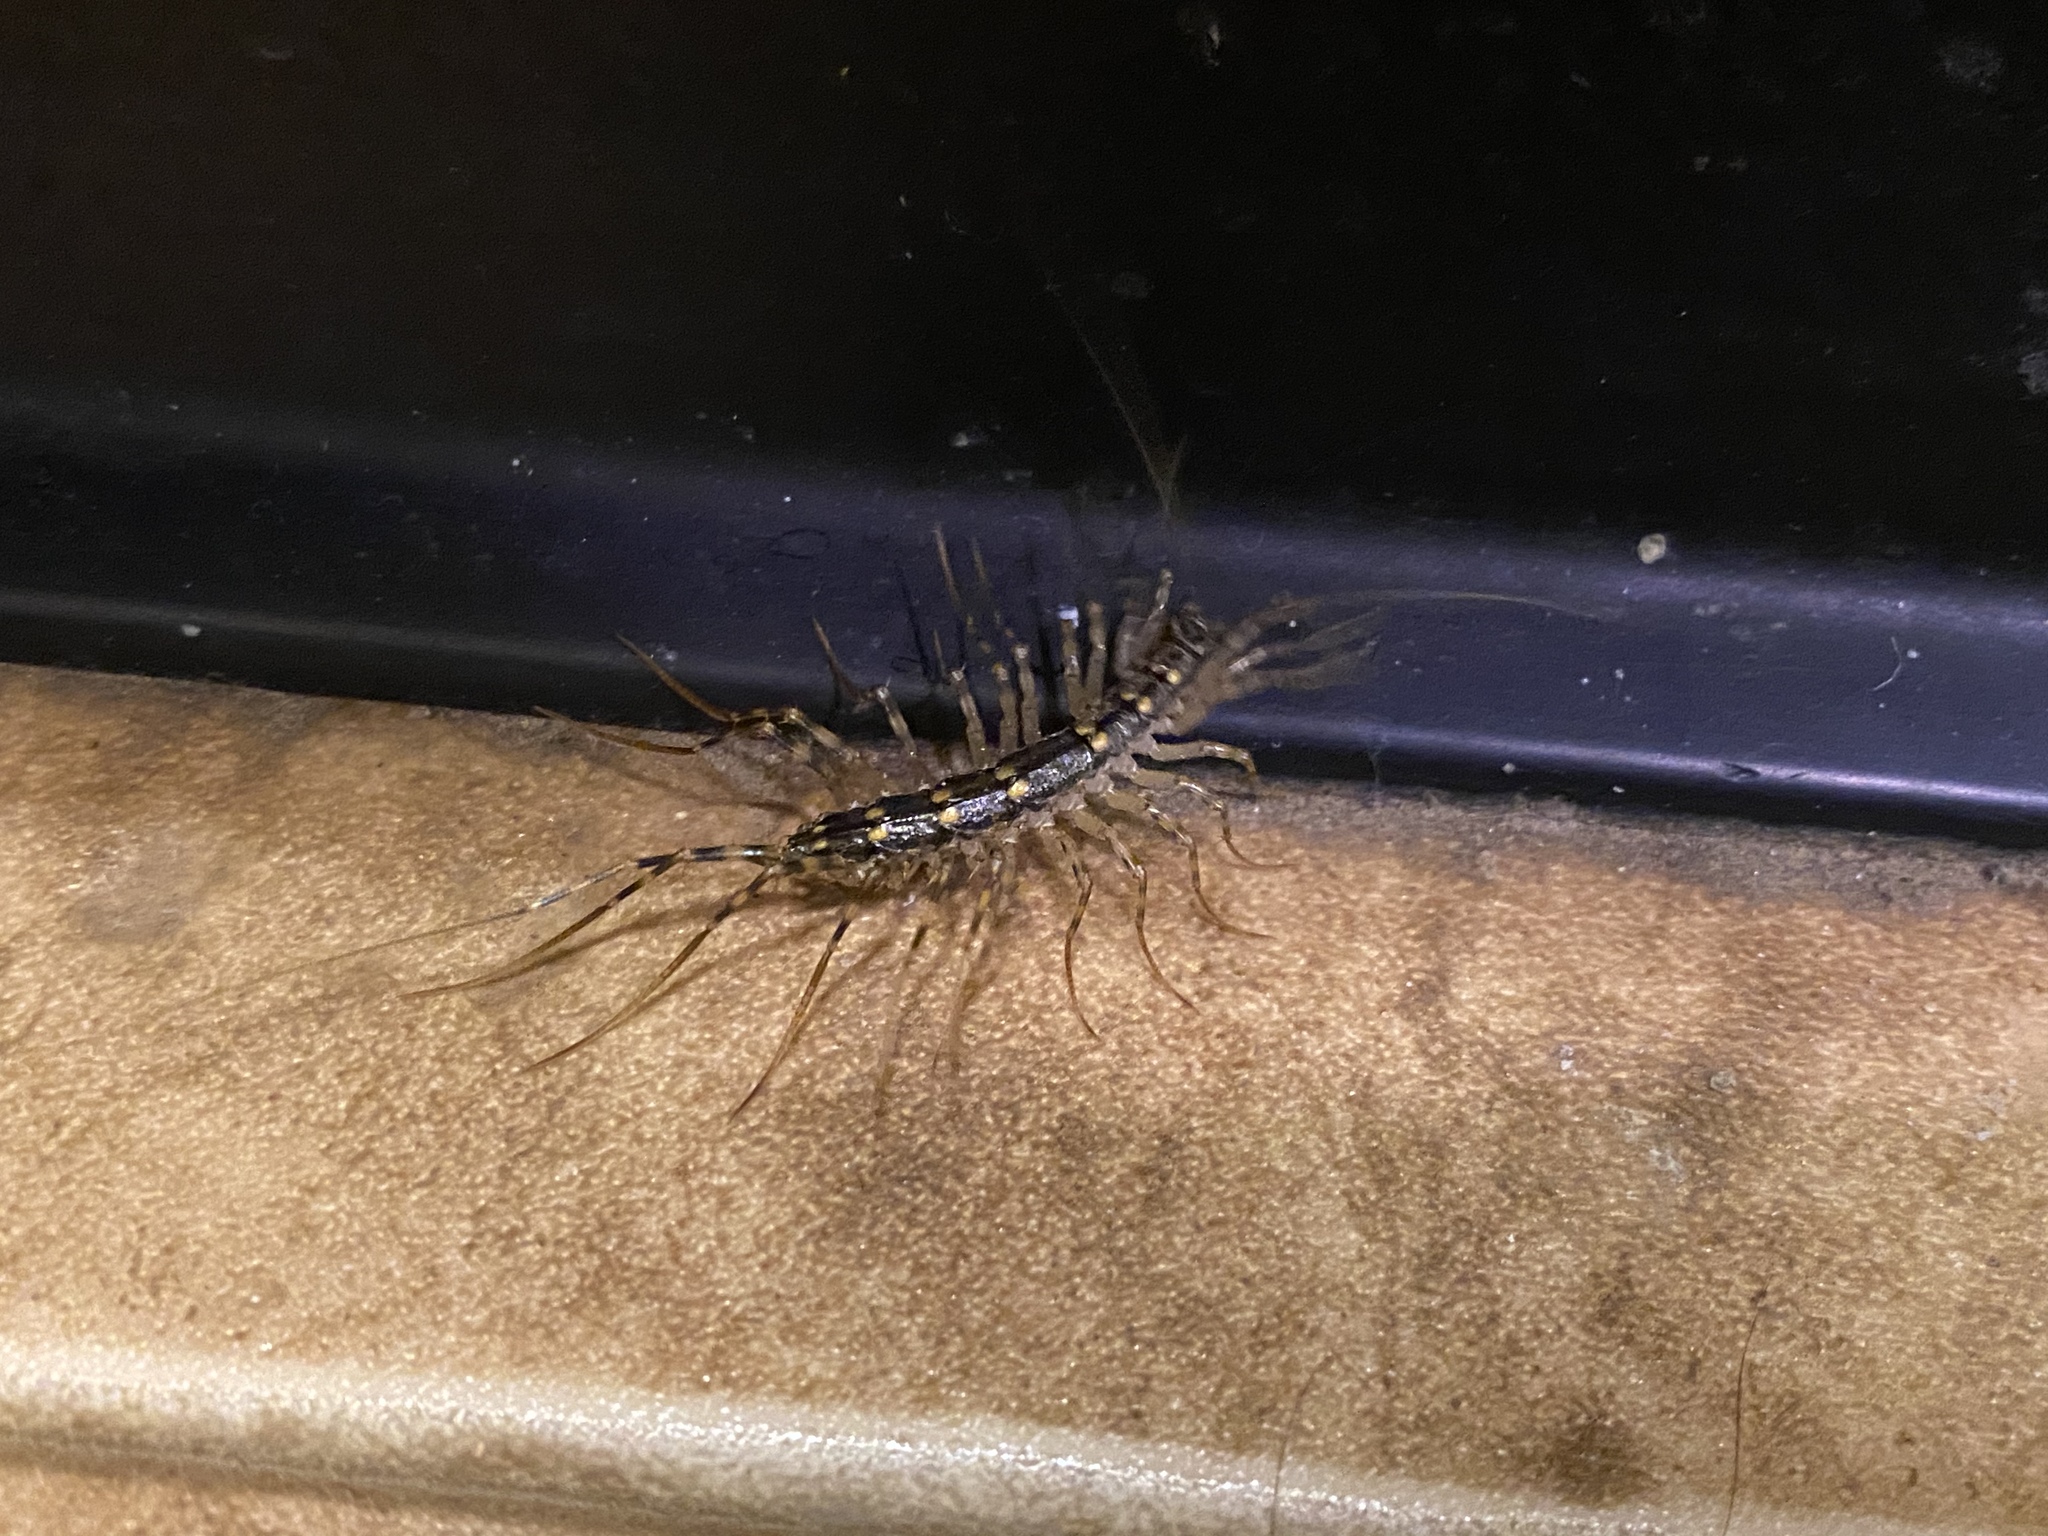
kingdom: Animalia
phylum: Arthropoda
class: Chilopoda
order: Scutigeromorpha
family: Scutigeridae
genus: Thereuonema
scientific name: Thereuonema tuberculata
